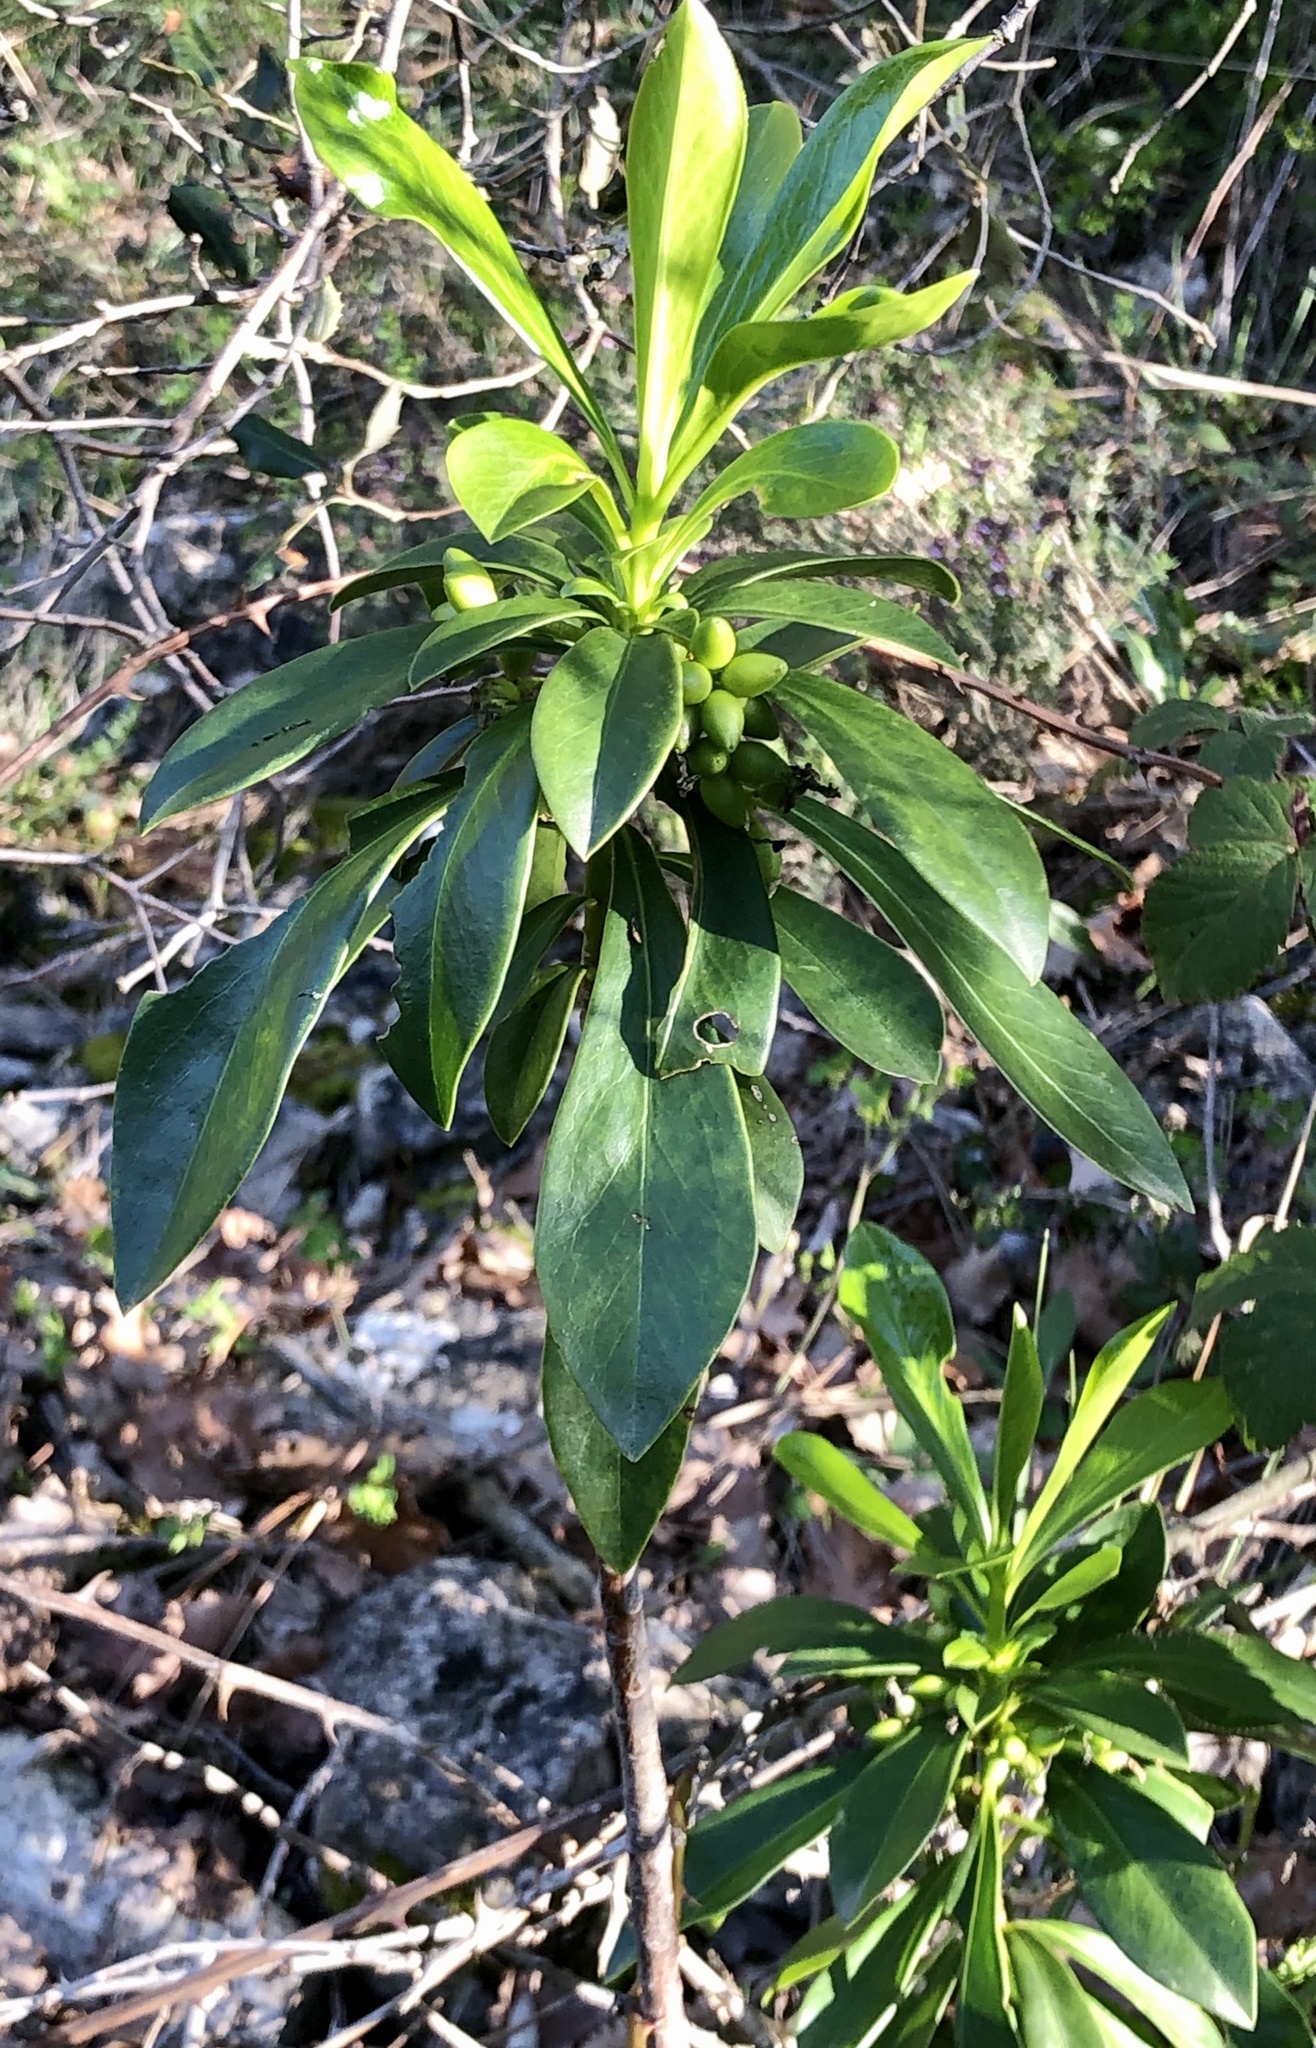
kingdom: Plantae
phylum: Tracheophyta
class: Magnoliopsida
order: Malvales
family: Thymelaeaceae
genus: Daphne
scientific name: Daphne laureola
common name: Spurge-laurel
